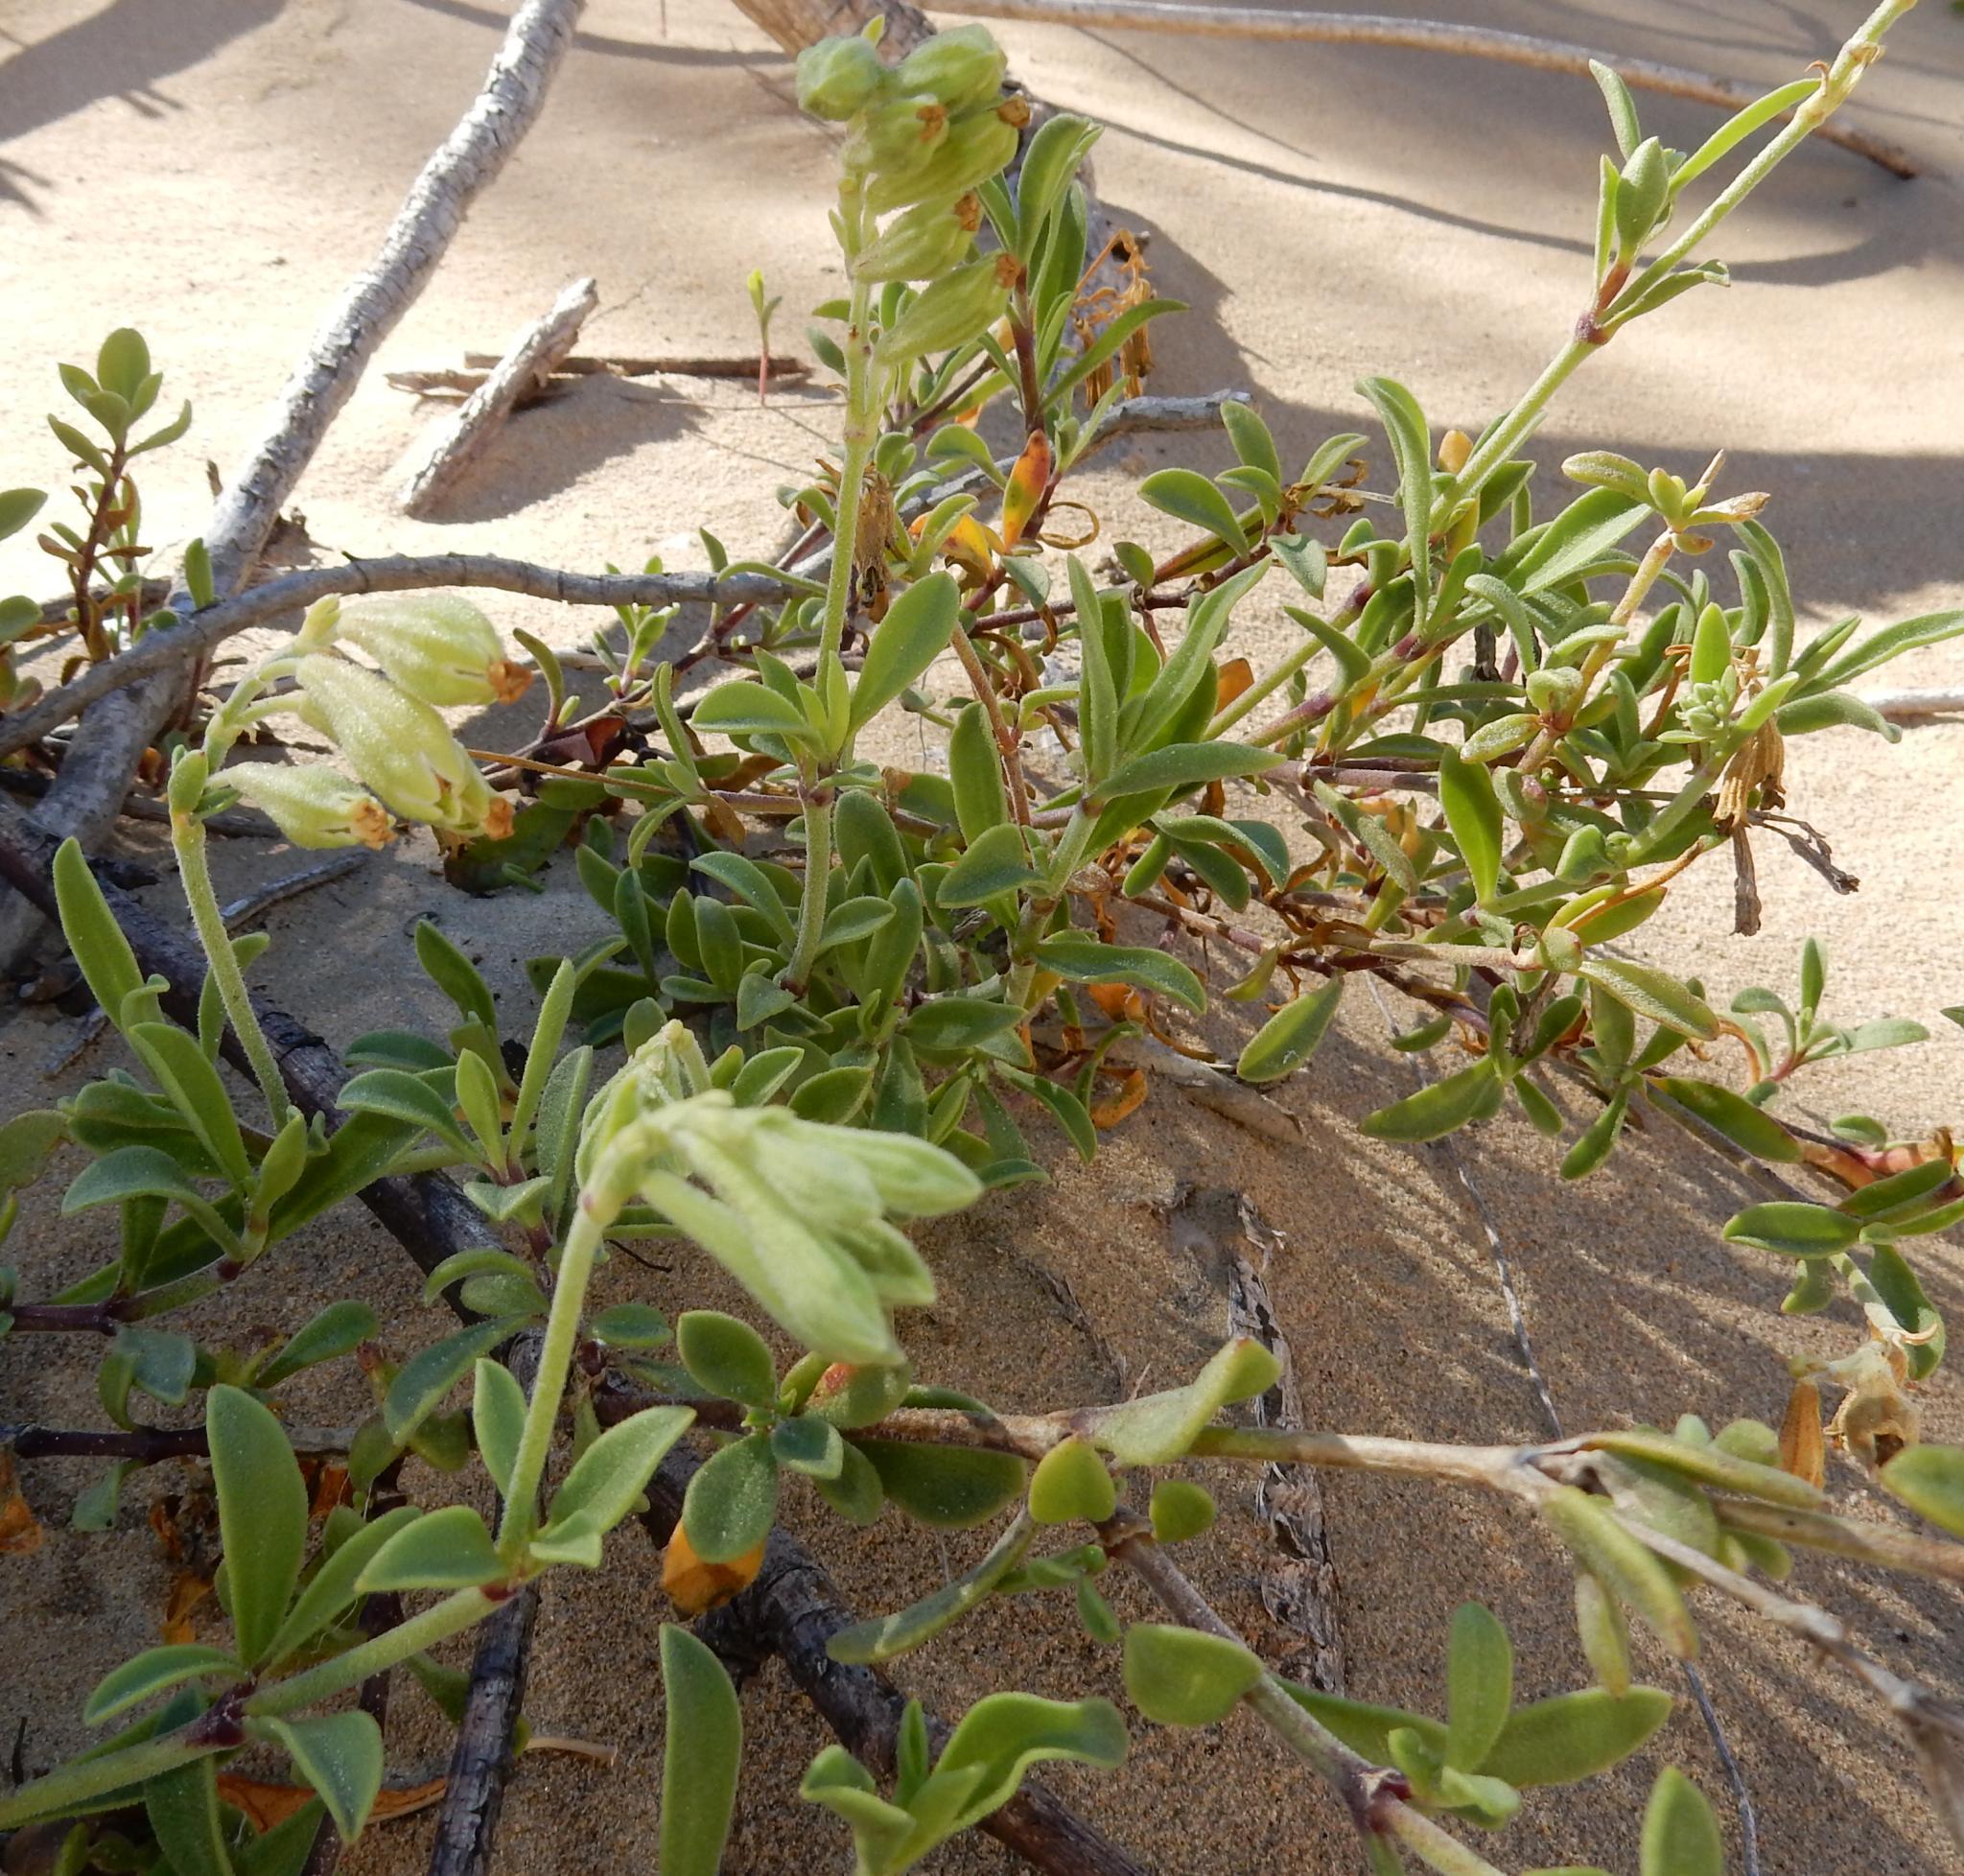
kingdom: Plantae
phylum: Tracheophyta
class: Magnoliopsida
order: Caryophyllales
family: Caryophyllaceae
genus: Silene
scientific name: Silene crassifolia
